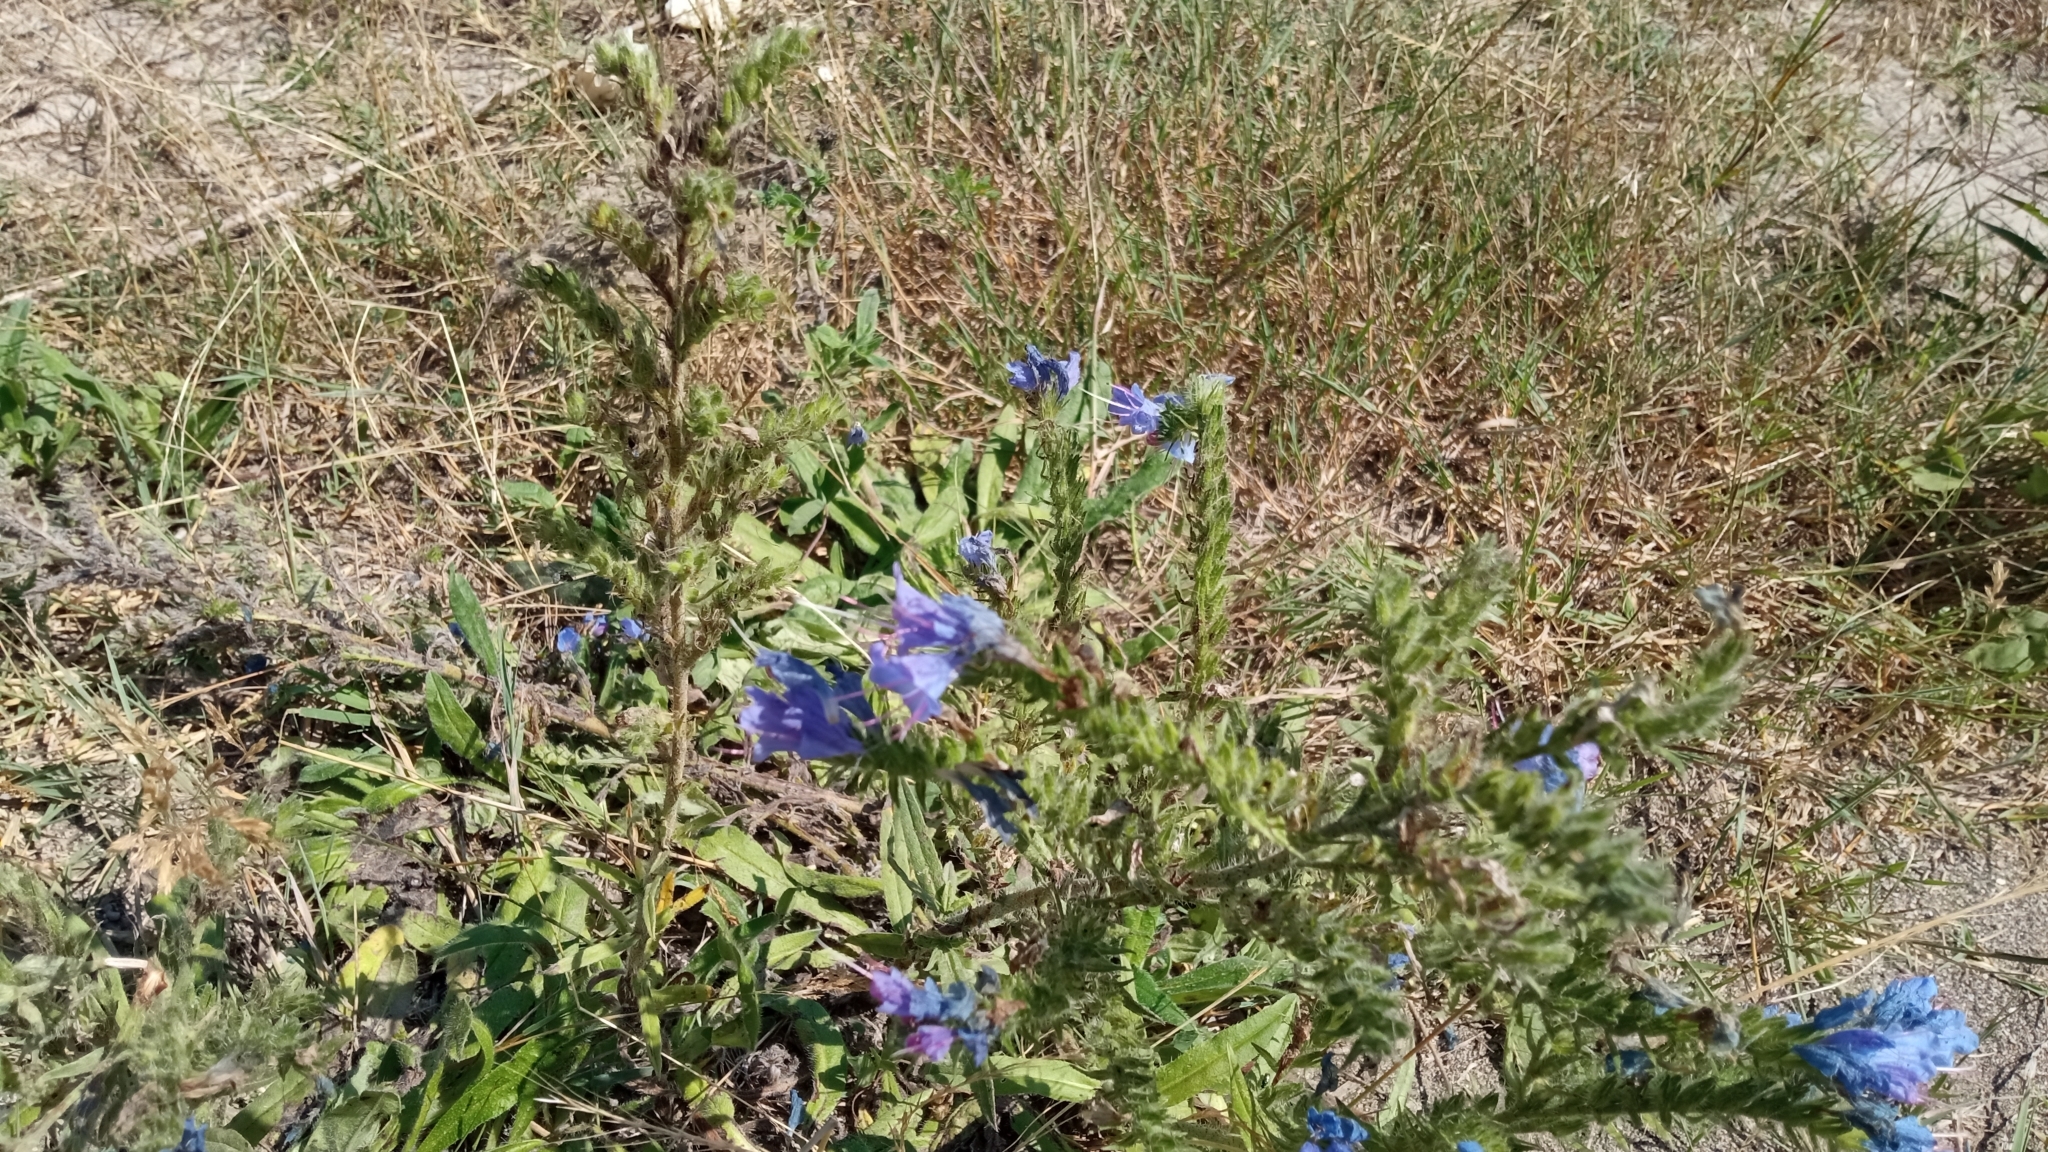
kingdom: Plantae
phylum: Tracheophyta
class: Magnoliopsida
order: Boraginales
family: Boraginaceae
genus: Echium
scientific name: Echium vulgare
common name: Common viper's bugloss
